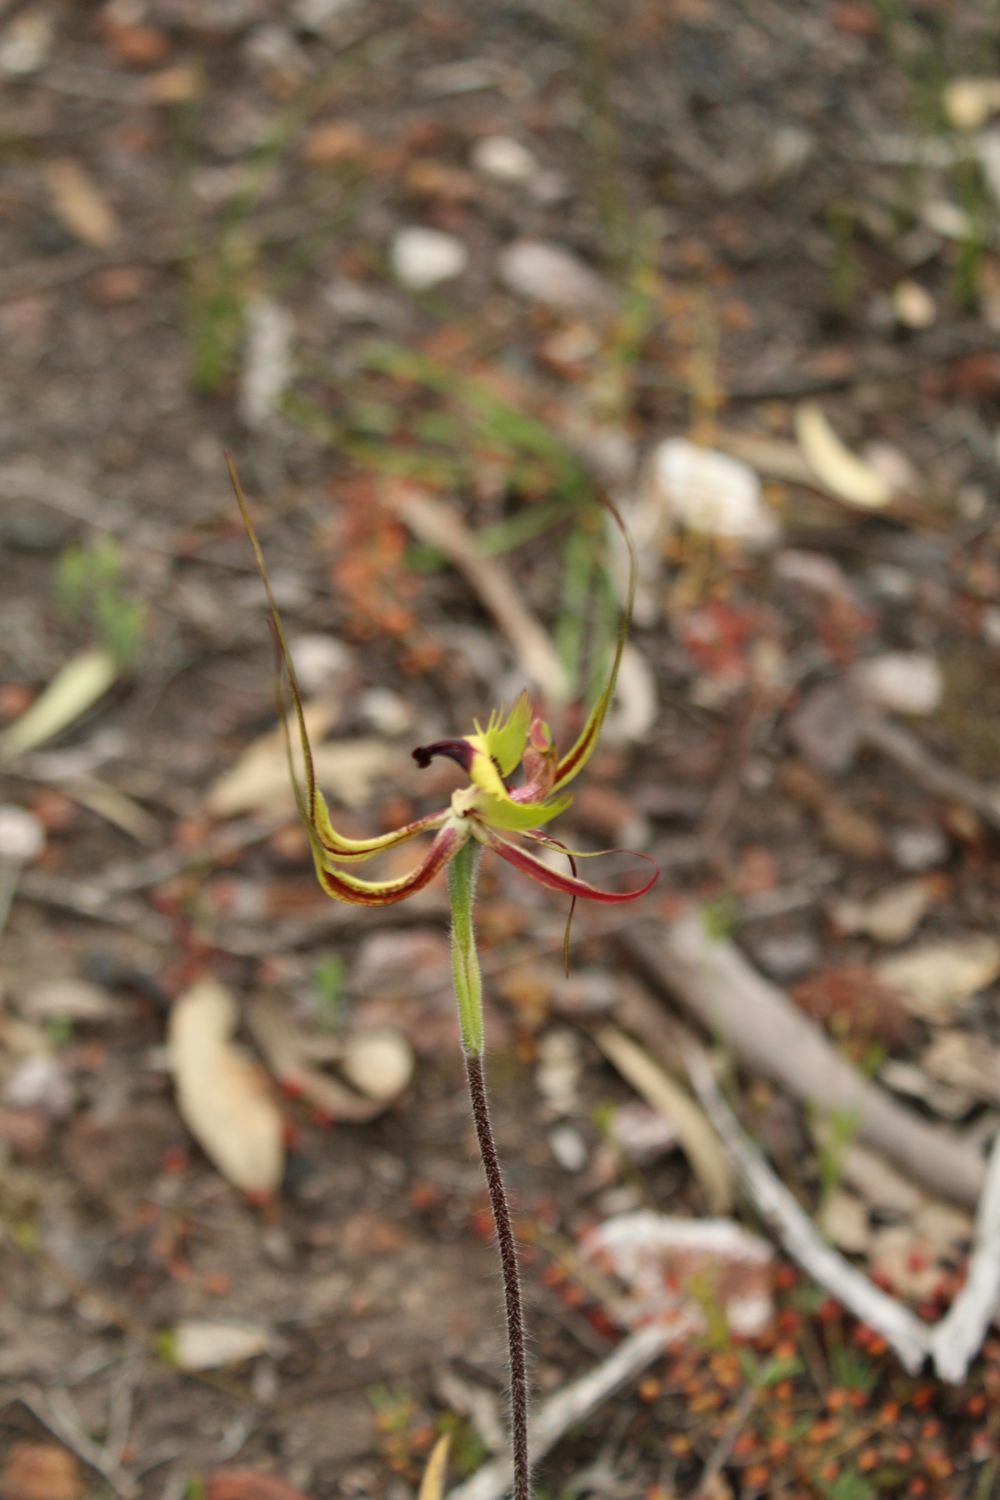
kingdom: Plantae
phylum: Tracheophyta
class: Liliopsida
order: Asparagales
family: Orchidaceae
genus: Caladenia
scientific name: Caladenia falcata
